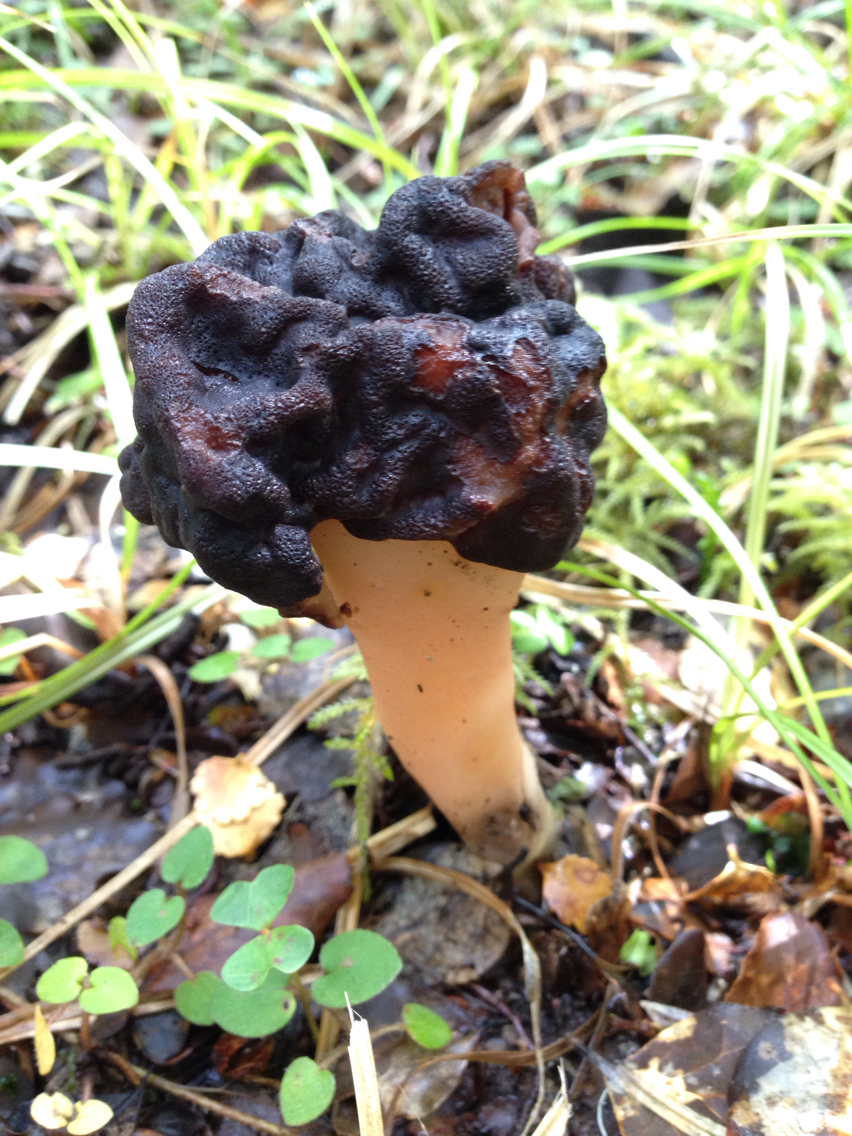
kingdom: Fungi
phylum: Ascomycota
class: Pezizomycetes
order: Pezizales
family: Discinaceae
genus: Gyromitra
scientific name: Gyromitra tasmanica
